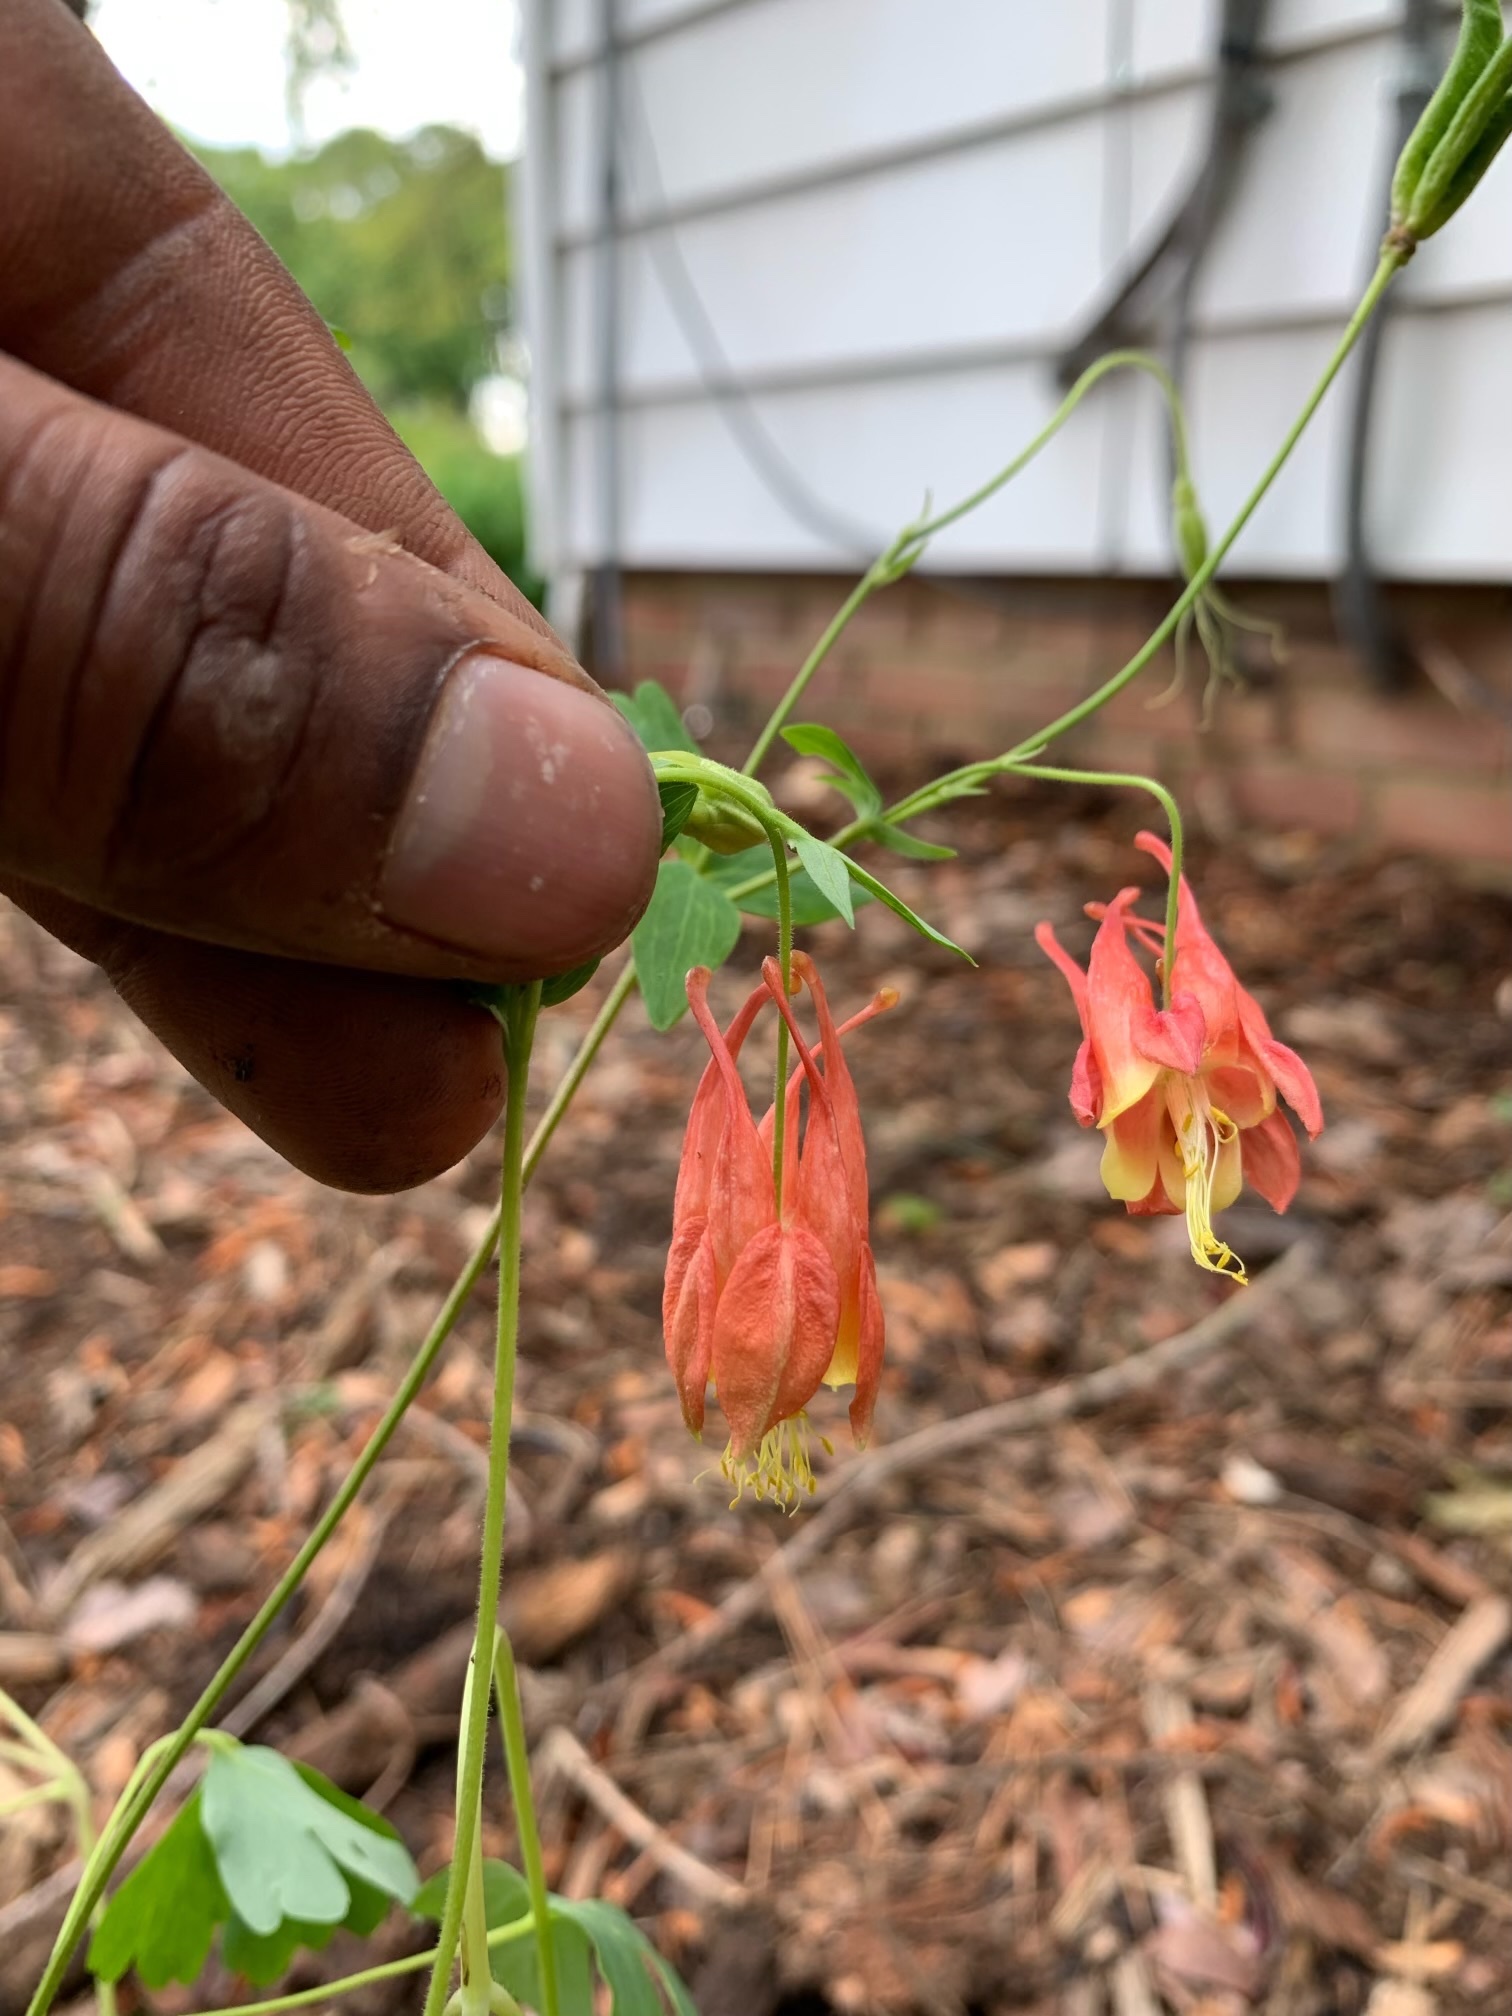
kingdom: Plantae
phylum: Tracheophyta
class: Magnoliopsida
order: Ranunculales
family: Ranunculaceae
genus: Aquilegia
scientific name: Aquilegia canadensis
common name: American columbine
